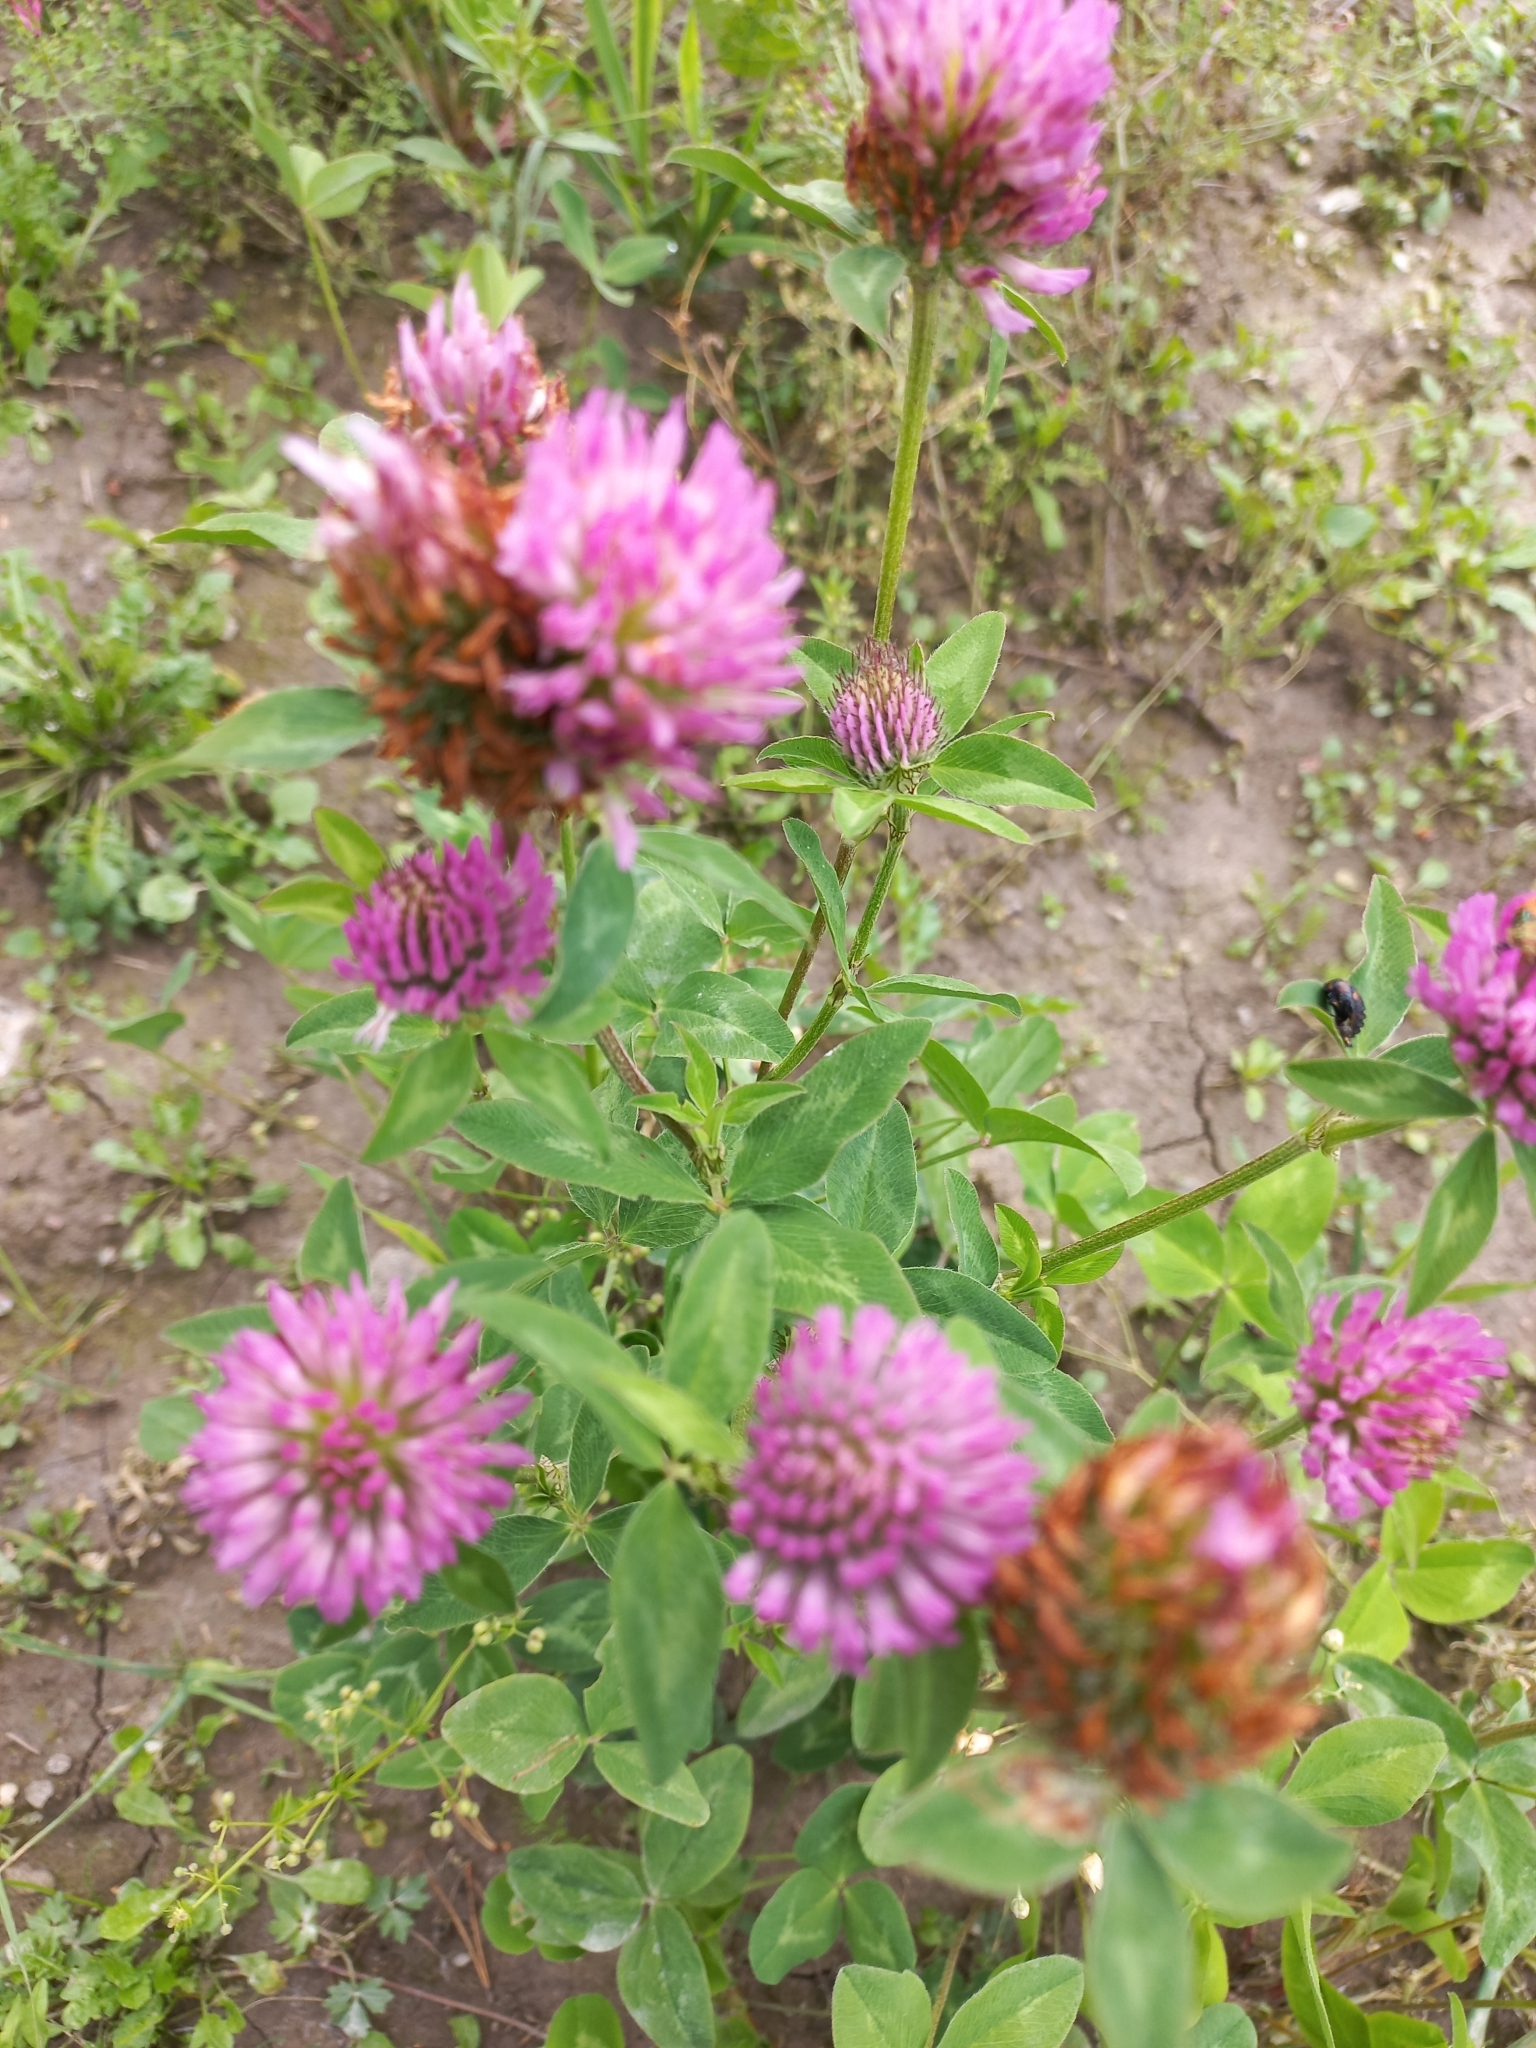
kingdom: Plantae
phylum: Tracheophyta
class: Magnoliopsida
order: Fabales
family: Fabaceae
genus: Trifolium
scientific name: Trifolium pratense
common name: Red clover
